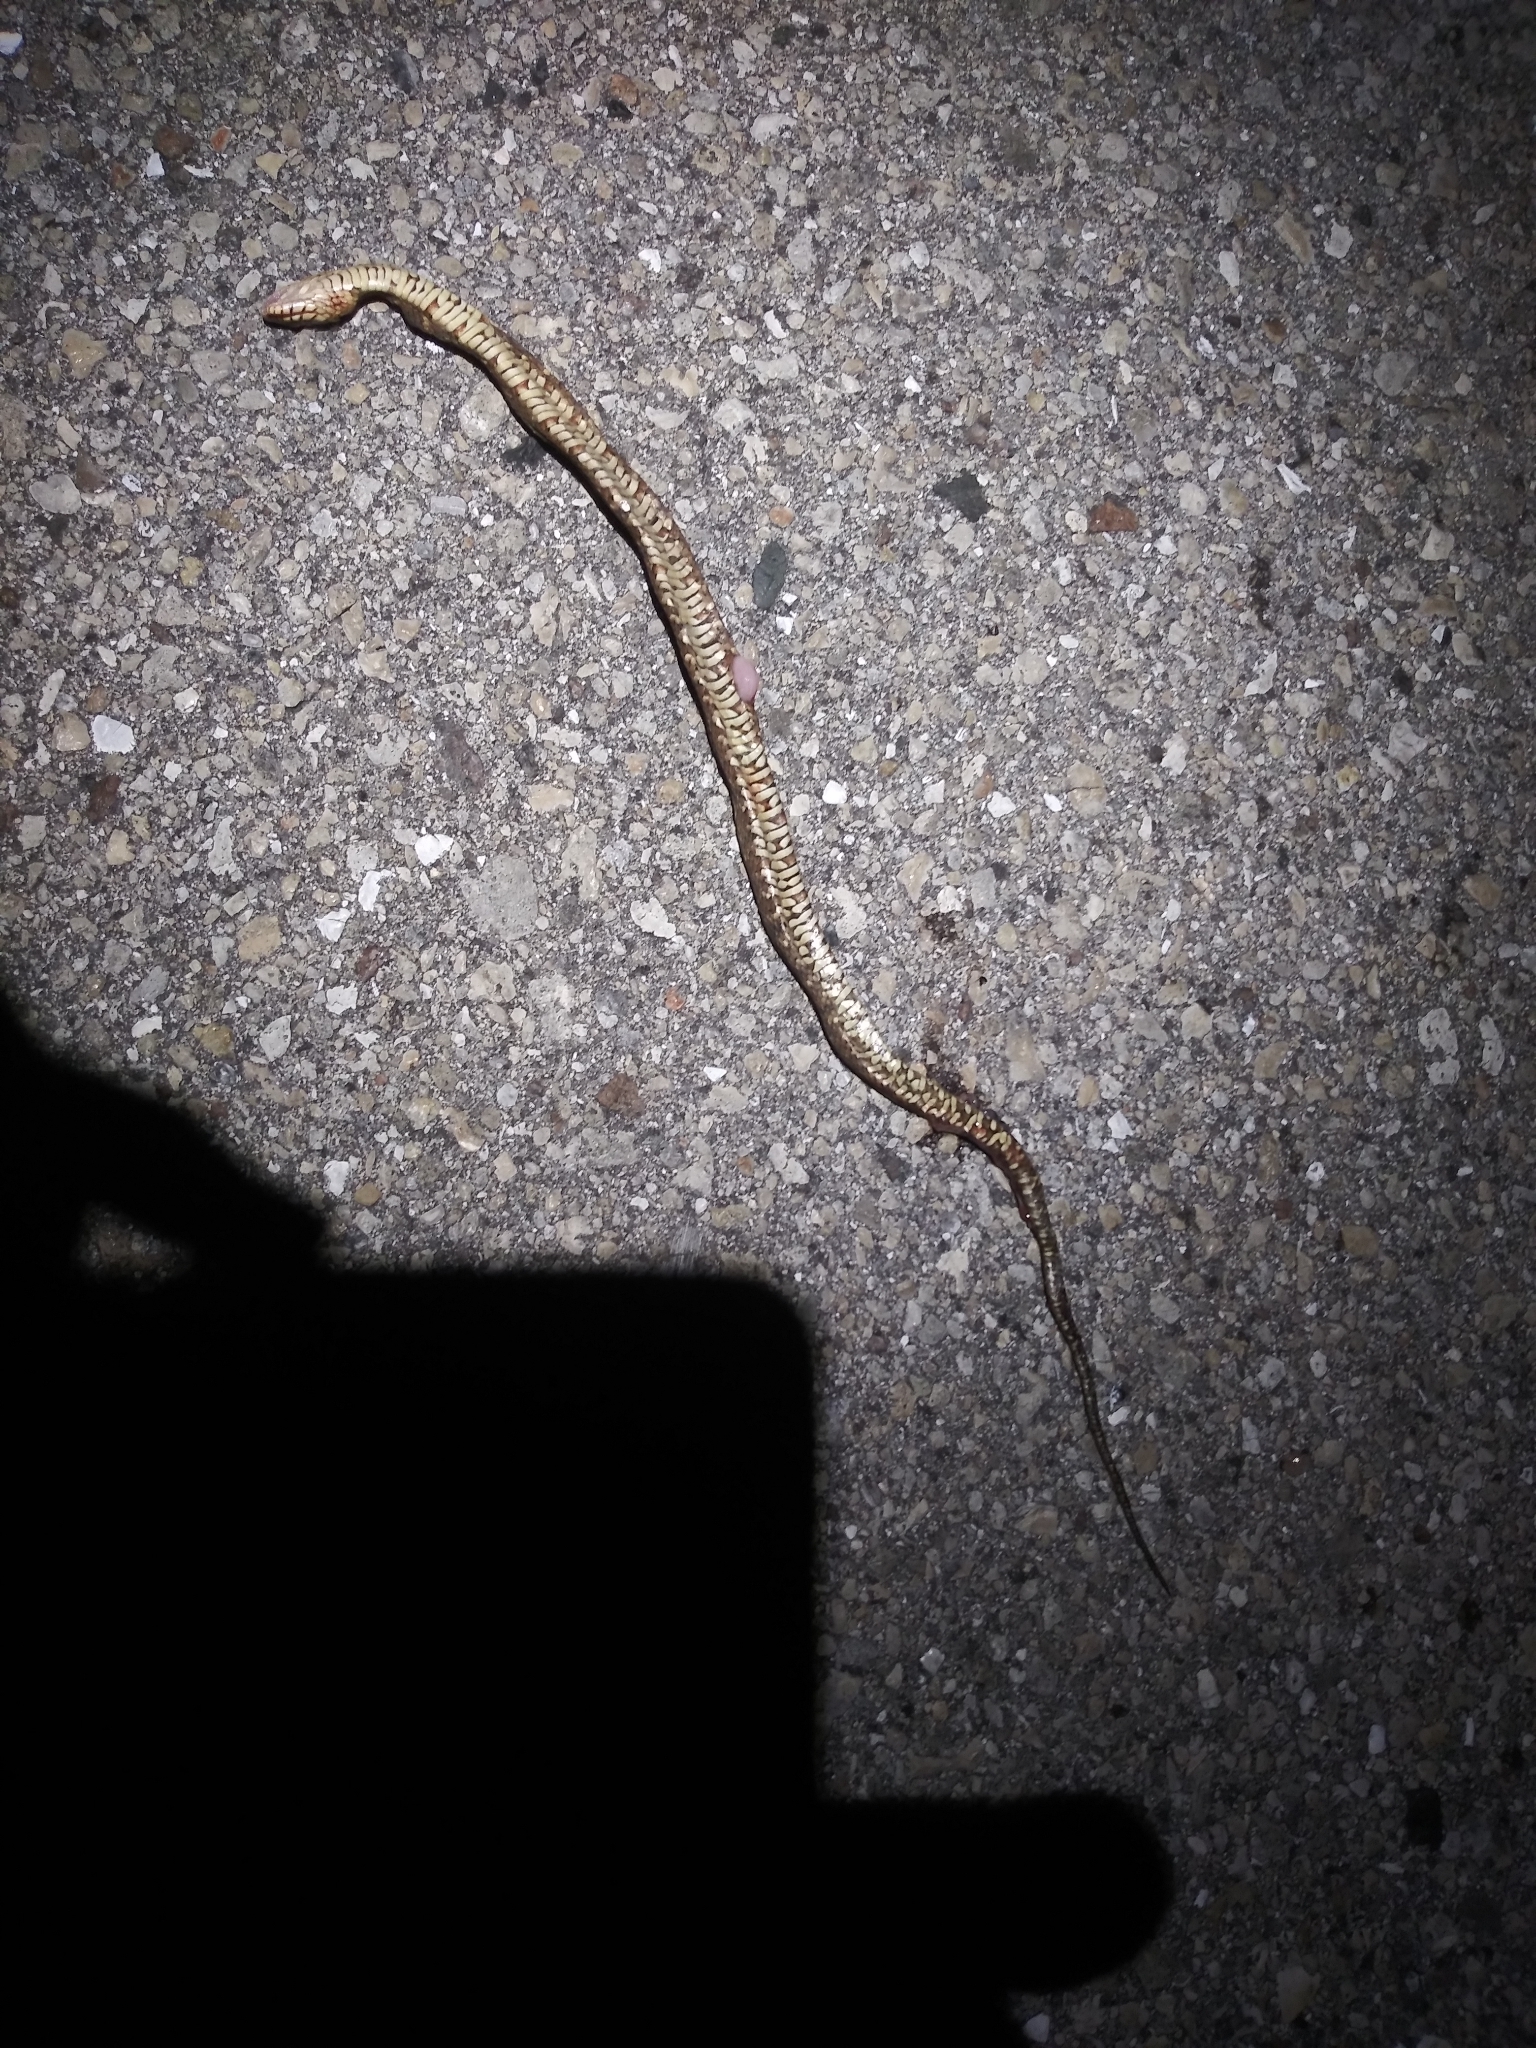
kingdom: Animalia
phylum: Chordata
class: Squamata
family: Colubridae
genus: Nerodia
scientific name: Nerodia fasciata
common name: Southern water snake
